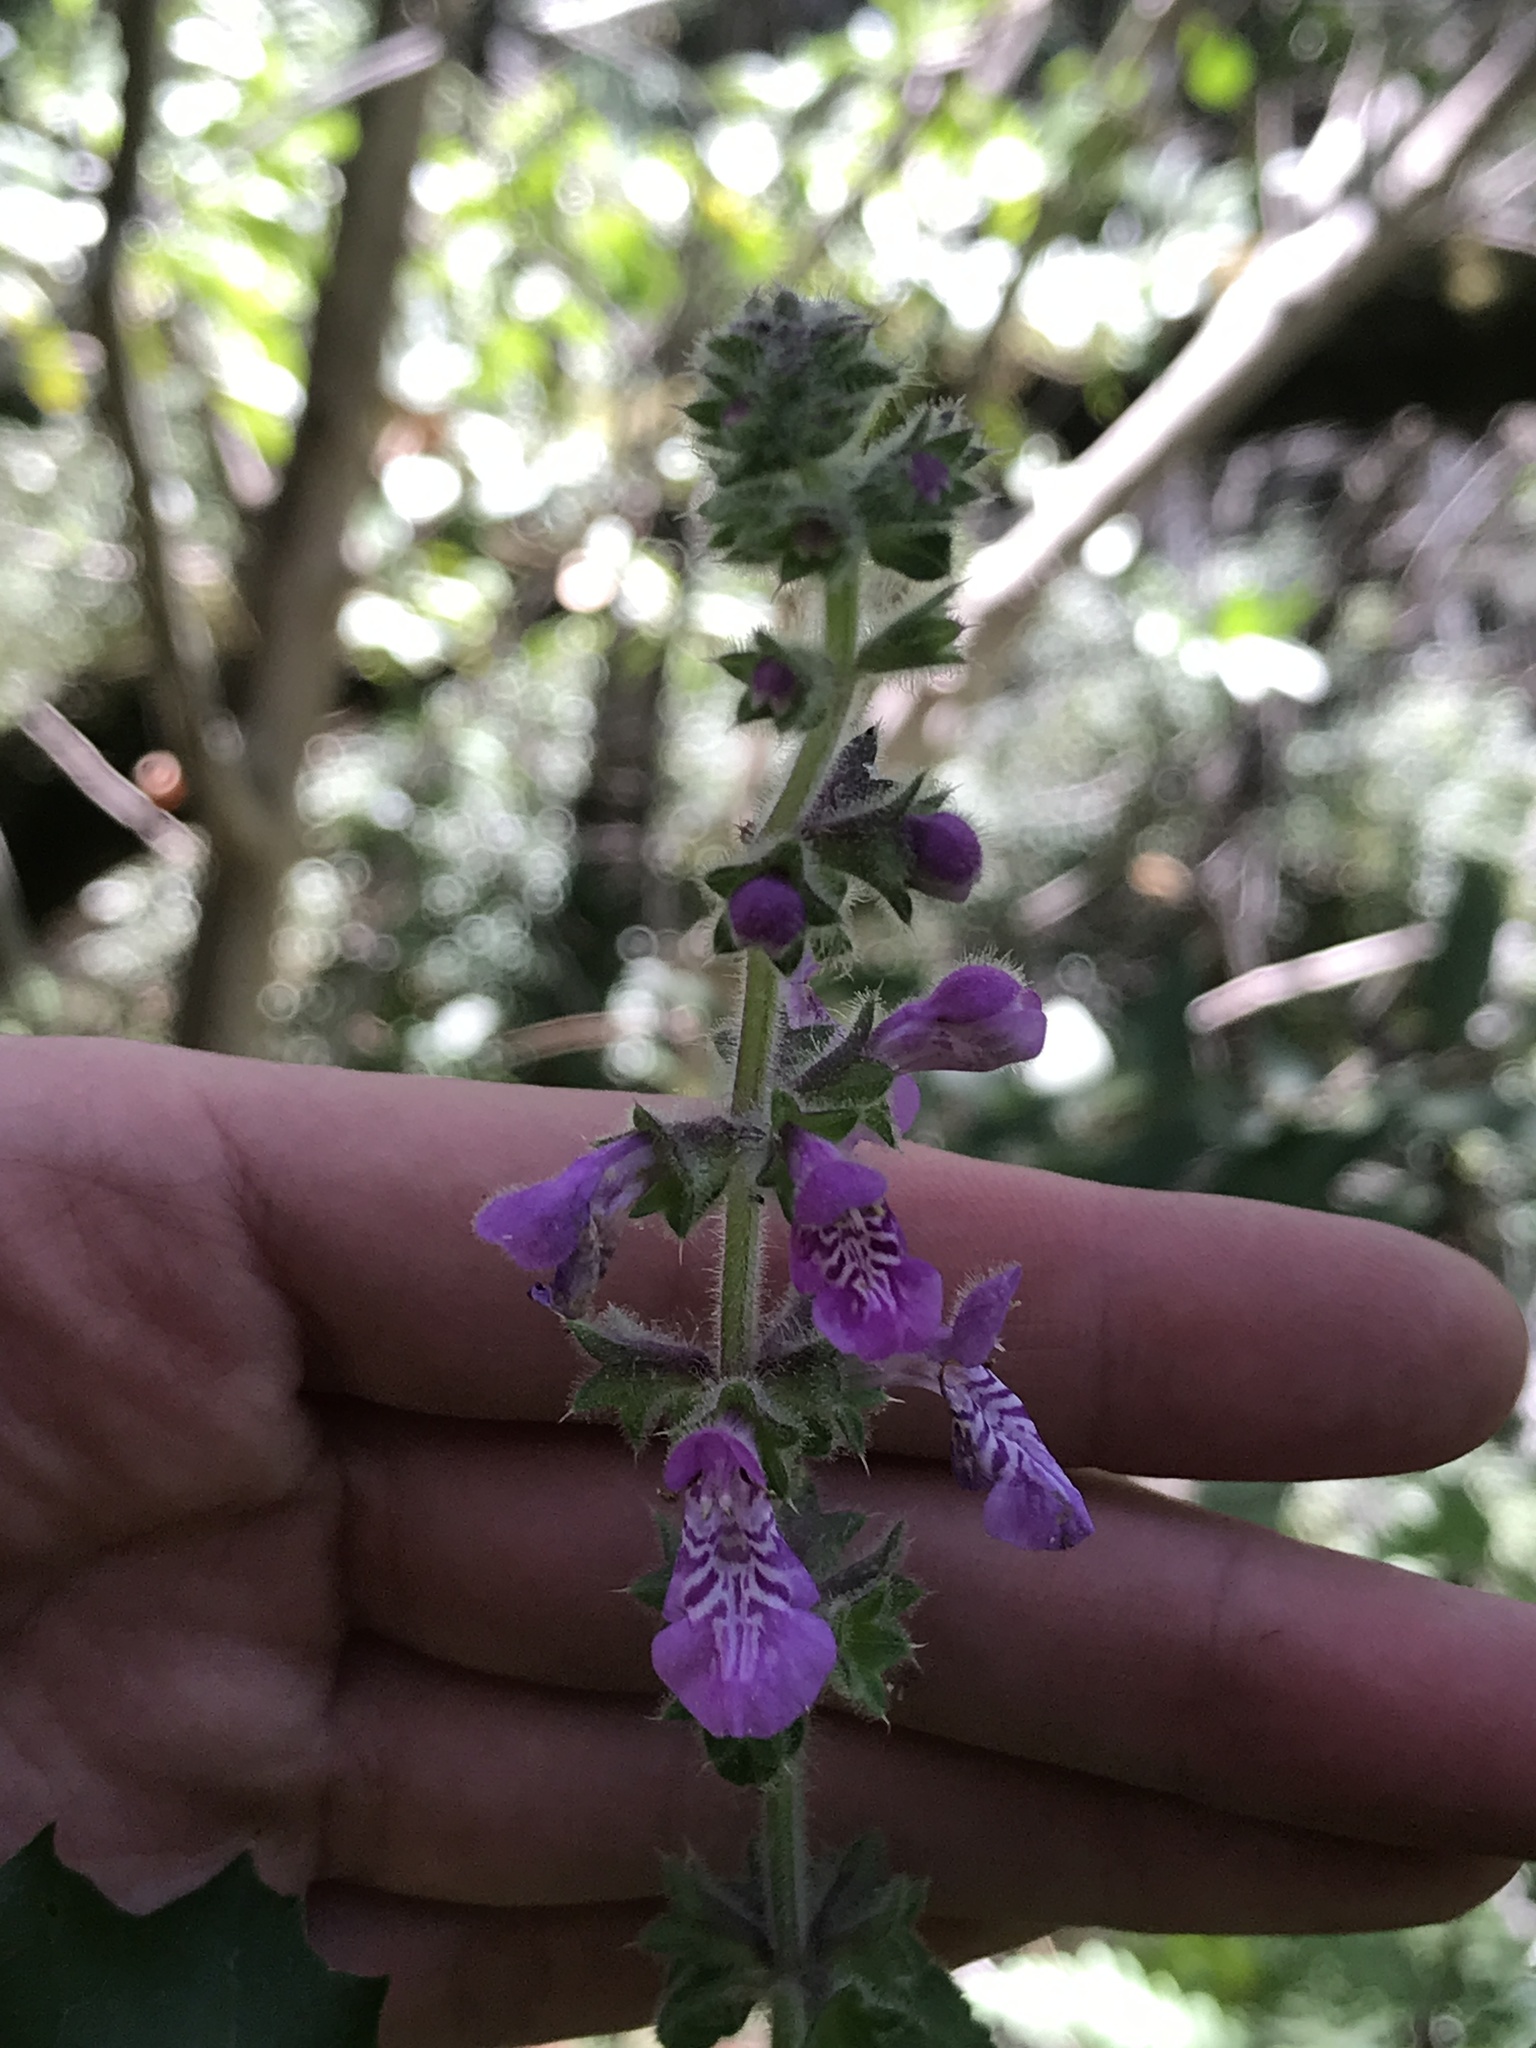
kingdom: Plantae
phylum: Tracheophyta
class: Magnoliopsida
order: Lamiales
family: Lamiaceae
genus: Stachys
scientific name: Stachys bullata
